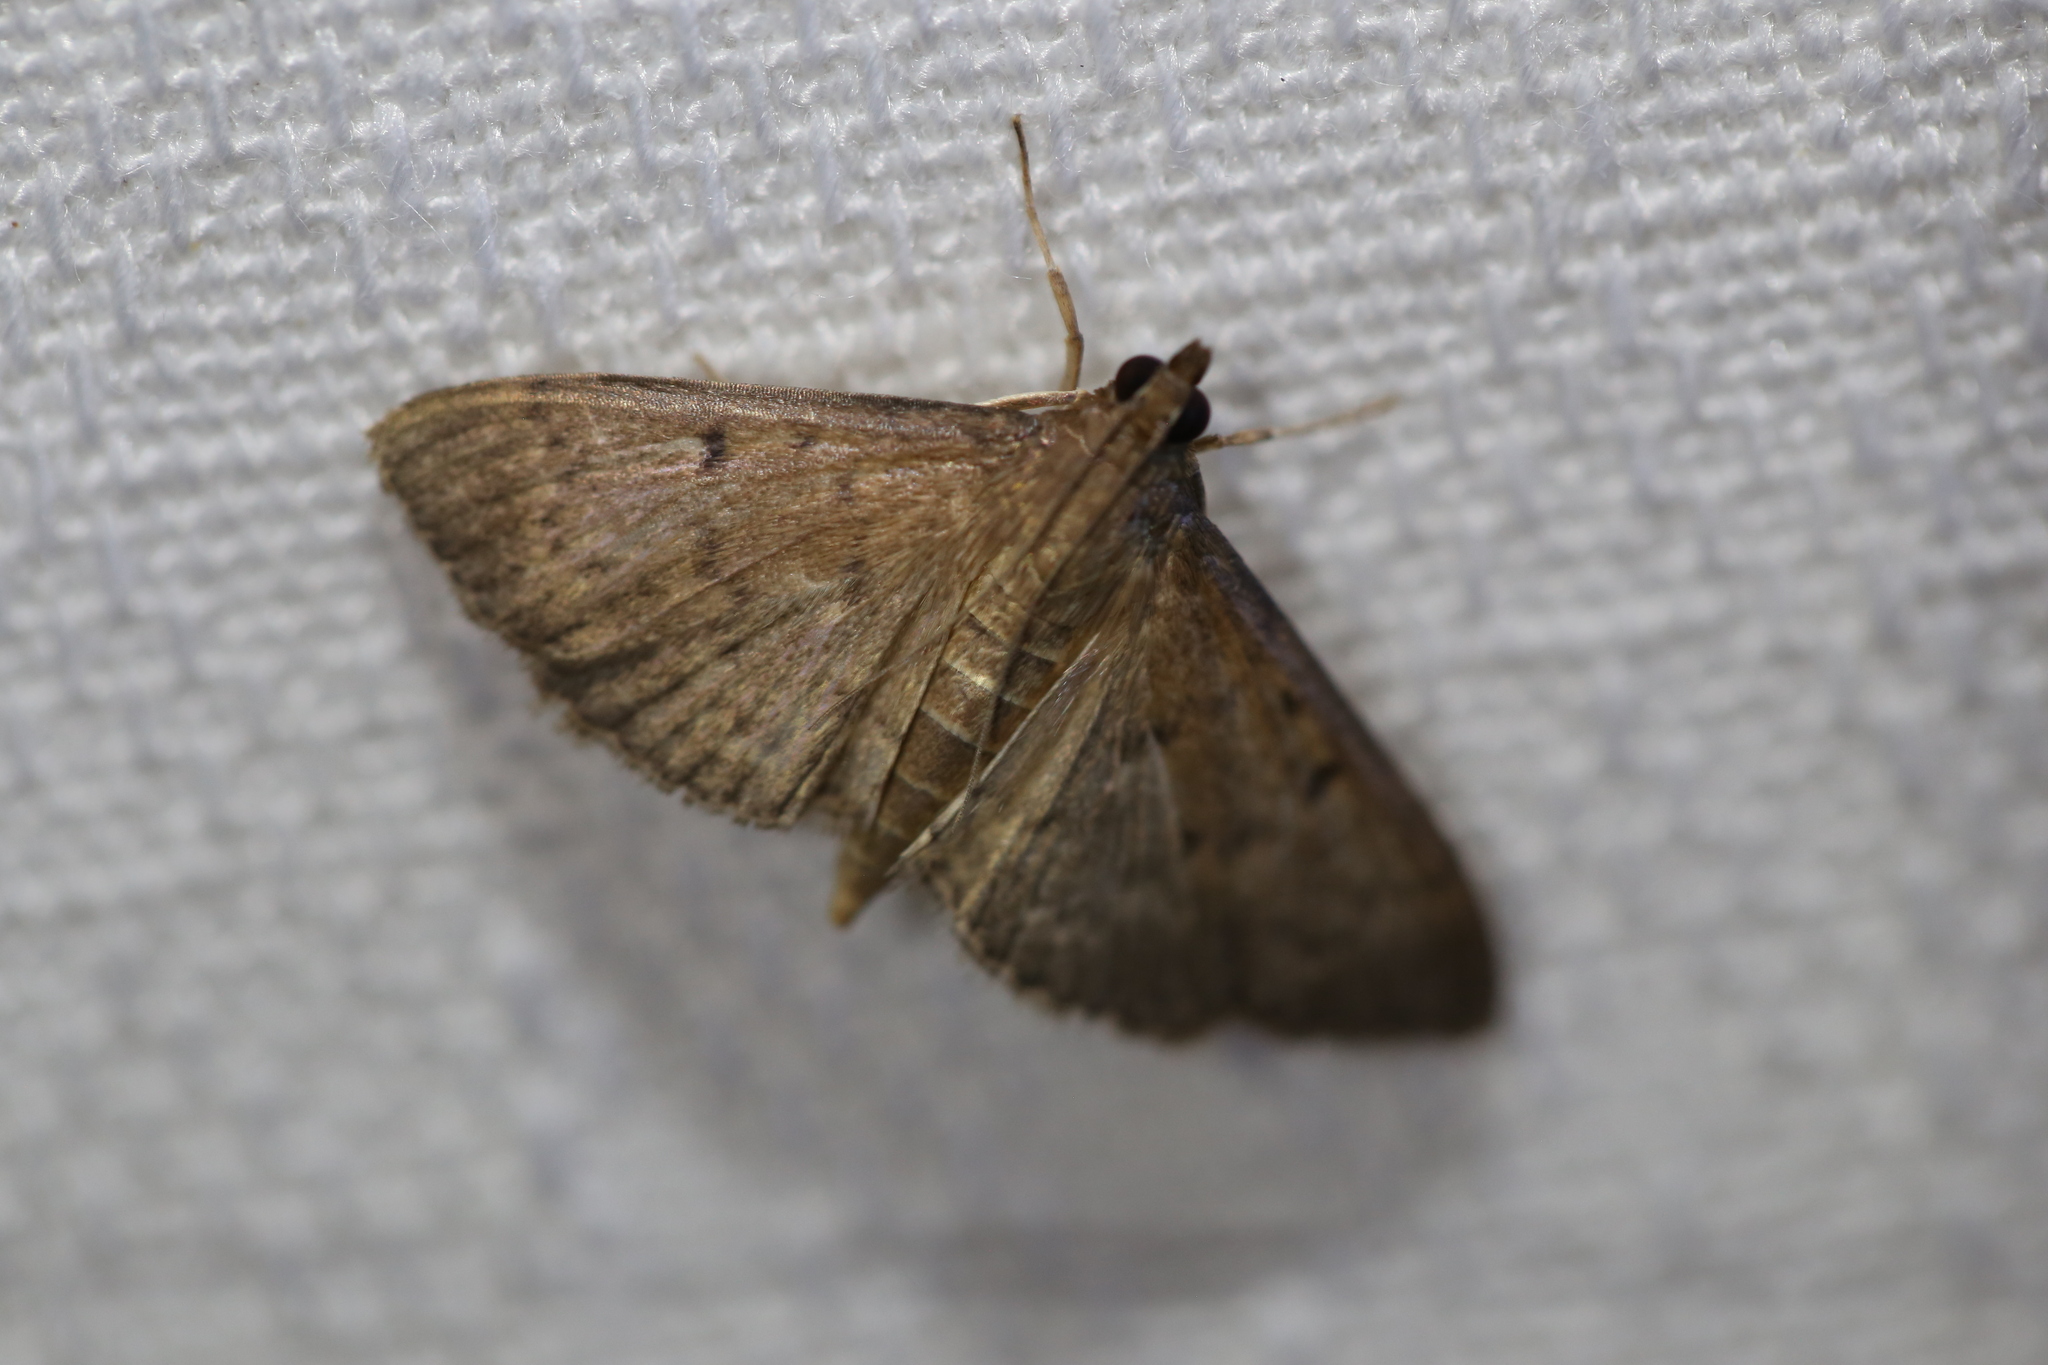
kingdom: Animalia
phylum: Arthropoda
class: Insecta
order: Lepidoptera
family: Crambidae
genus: Herpetogramma
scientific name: Herpetogramma licarsisalis
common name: Grass webworm
